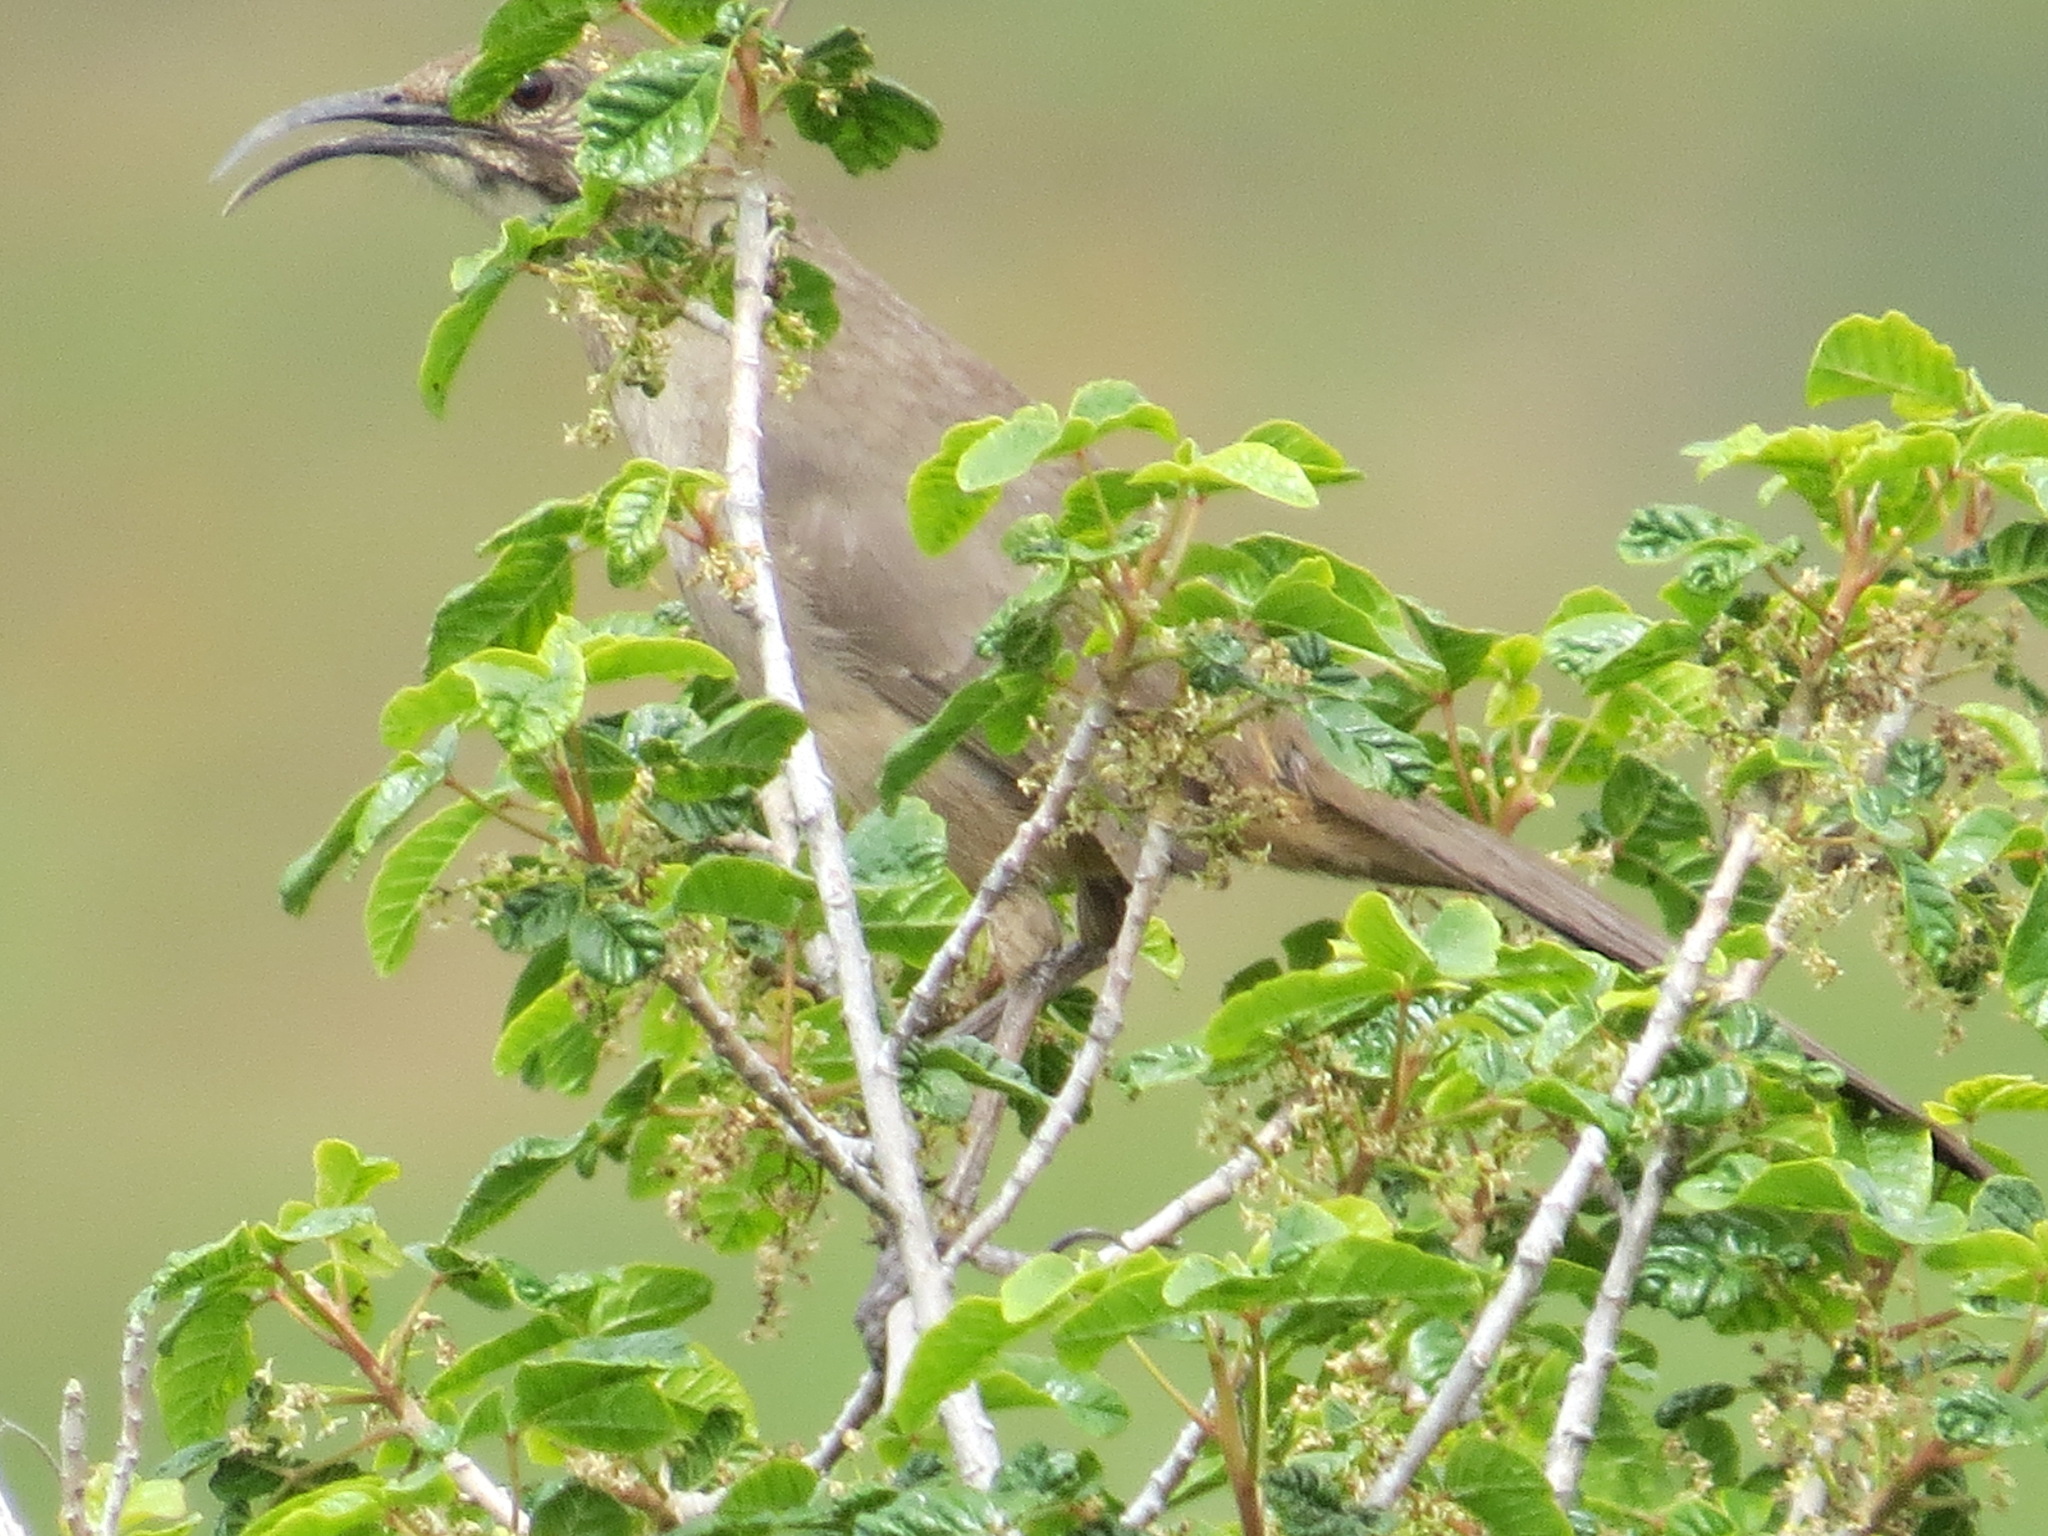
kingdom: Animalia
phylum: Chordata
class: Aves
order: Passeriformes
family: Mimidae
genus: Toxostoma
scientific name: Toxostoma redivivum
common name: California thrasher
